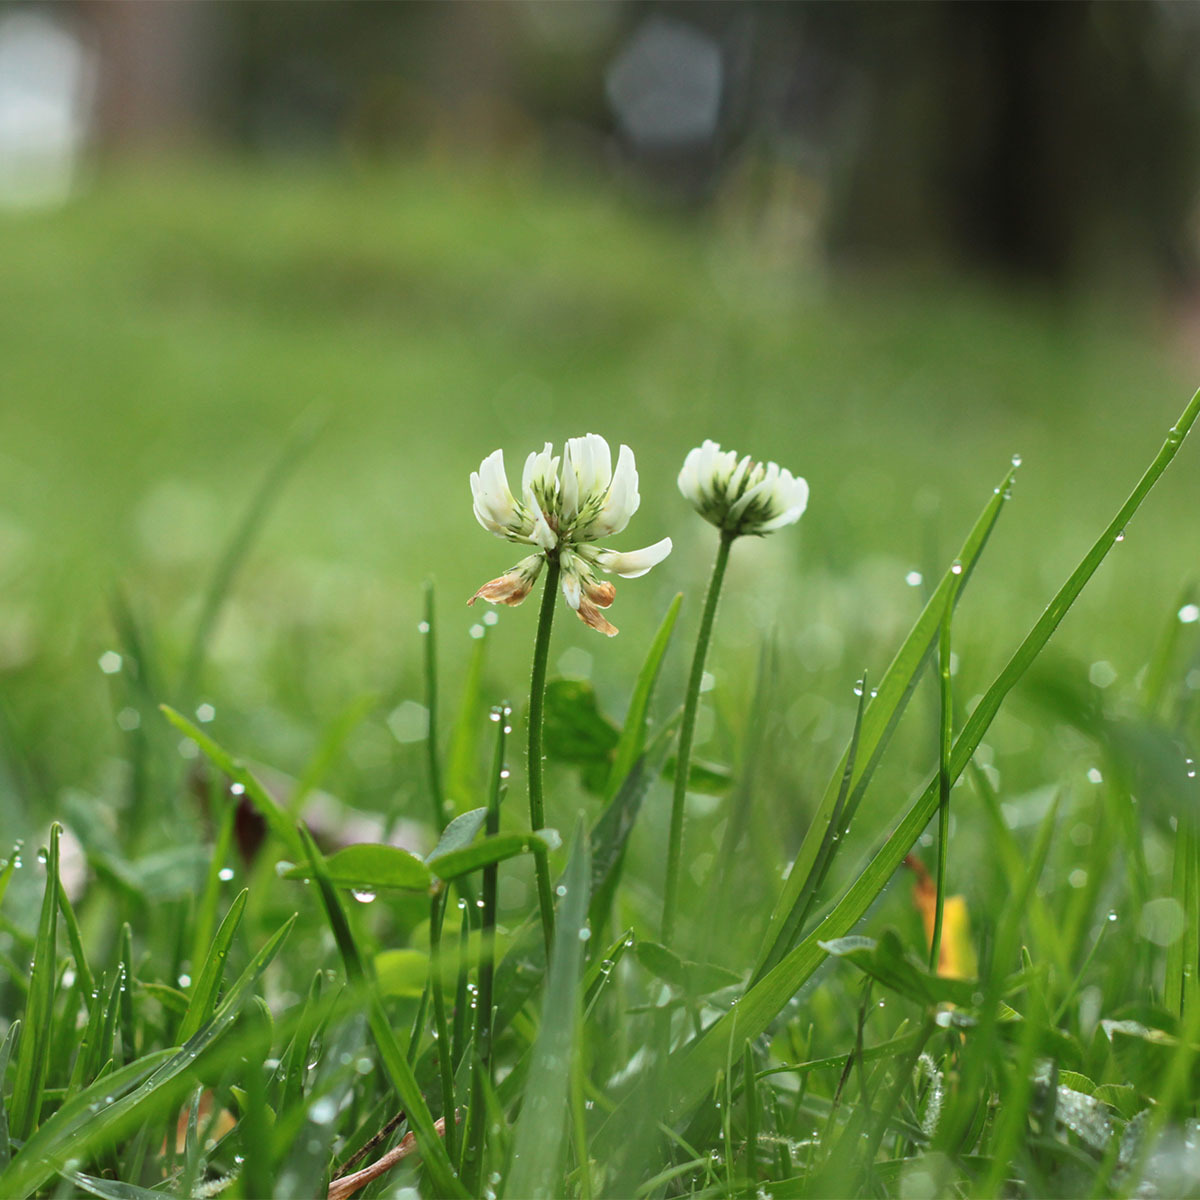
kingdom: Plantae
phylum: Tracheophyta
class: Magnoliopsida
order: Fabales
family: Fabaceae
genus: Trifolium
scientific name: Trifolium repens
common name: White clover
